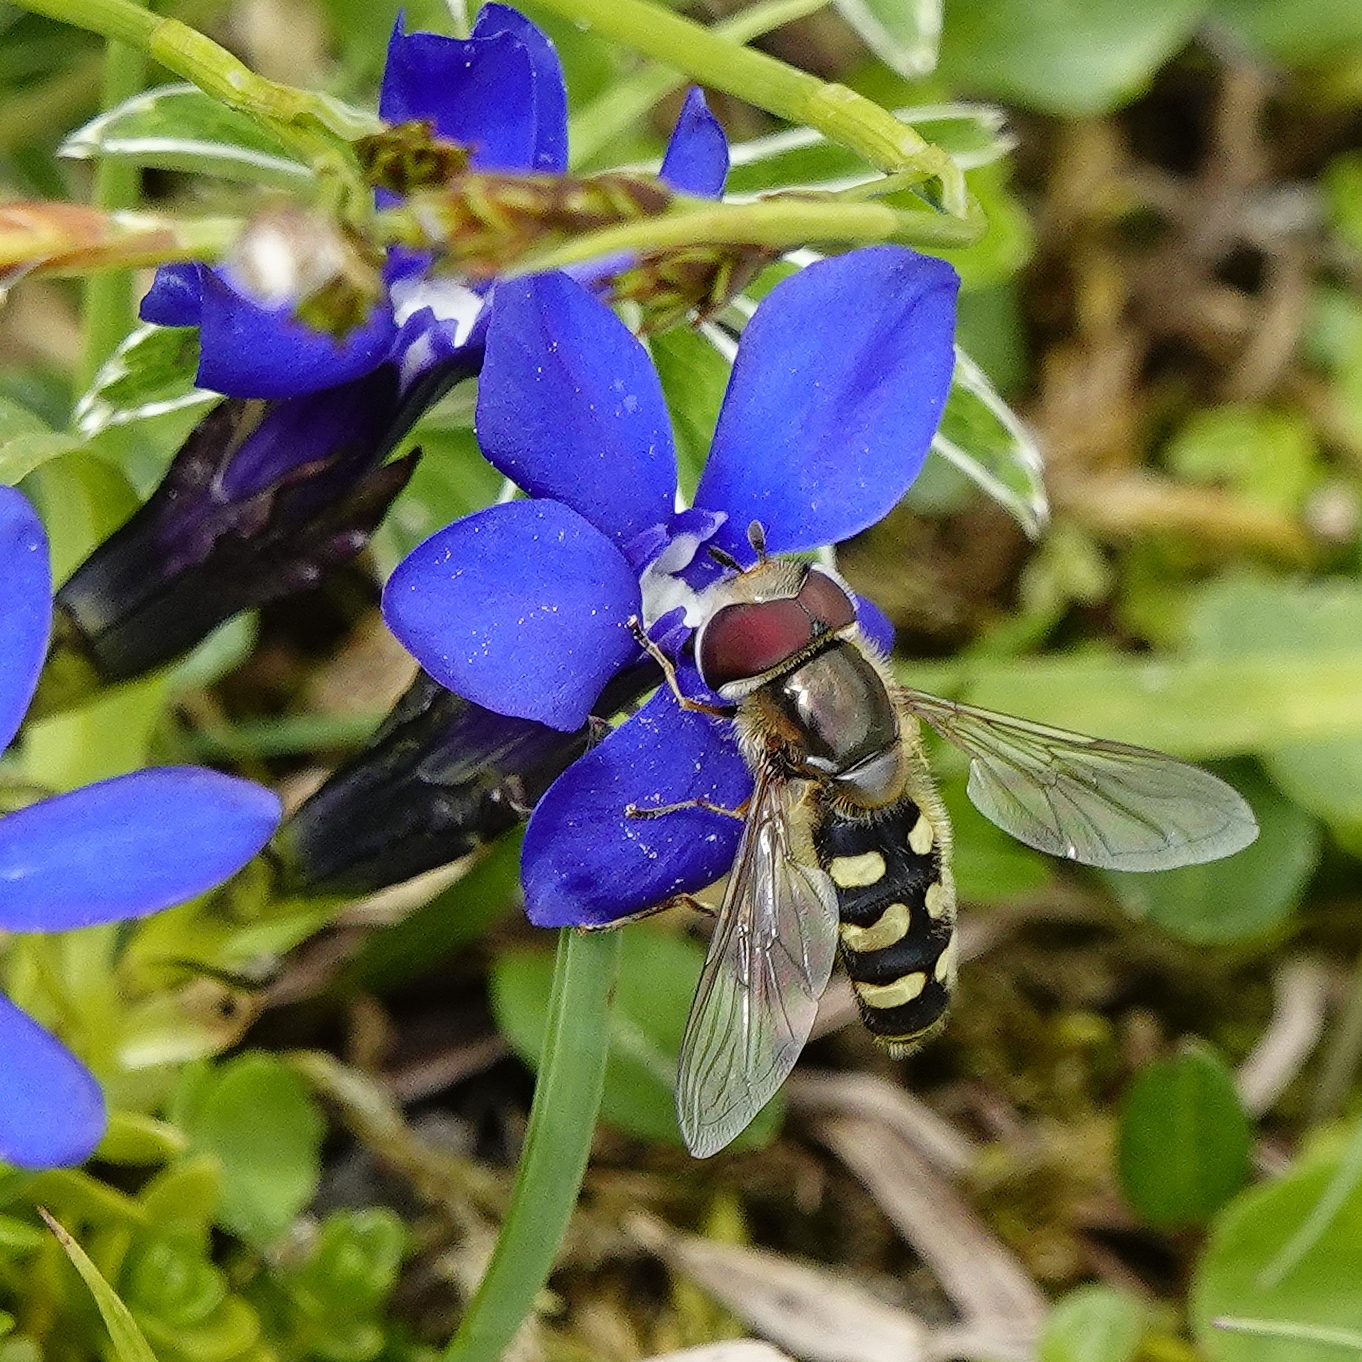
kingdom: Animalia
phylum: Arthropoda
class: Insecta
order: Diptera
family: Syrphidae
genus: Scaeva
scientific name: Scaeva selenitica
